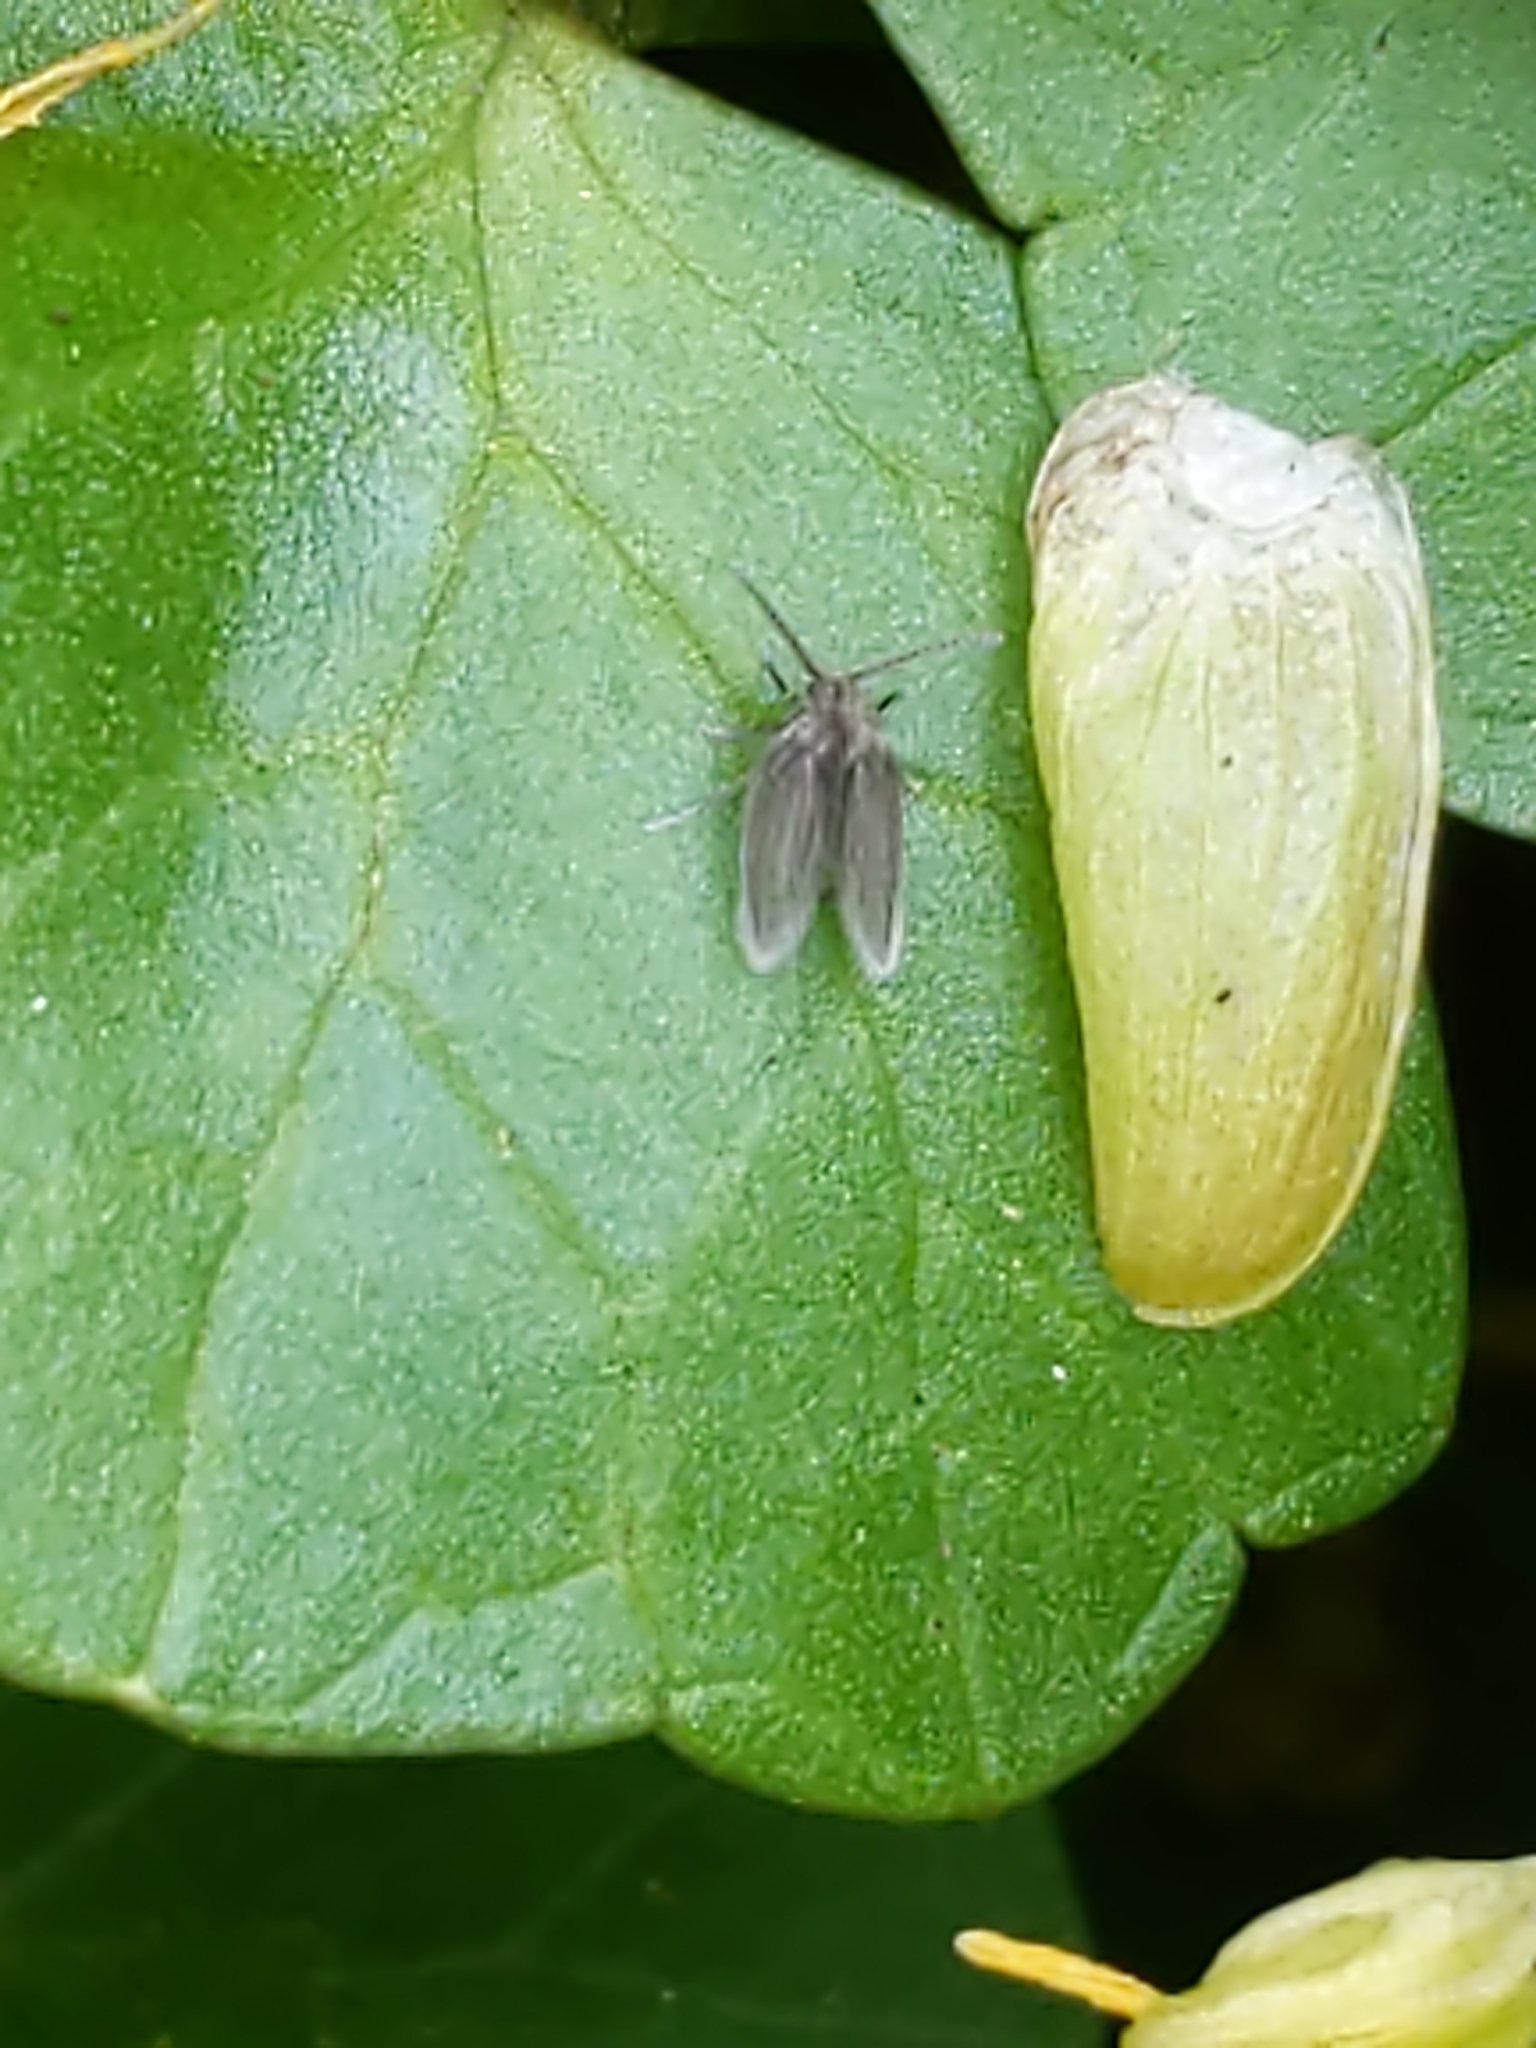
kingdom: Animalia
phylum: Arthropoda
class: Insecta
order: Diptera
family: Psychodidae
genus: Psychoda
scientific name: Psychoda
